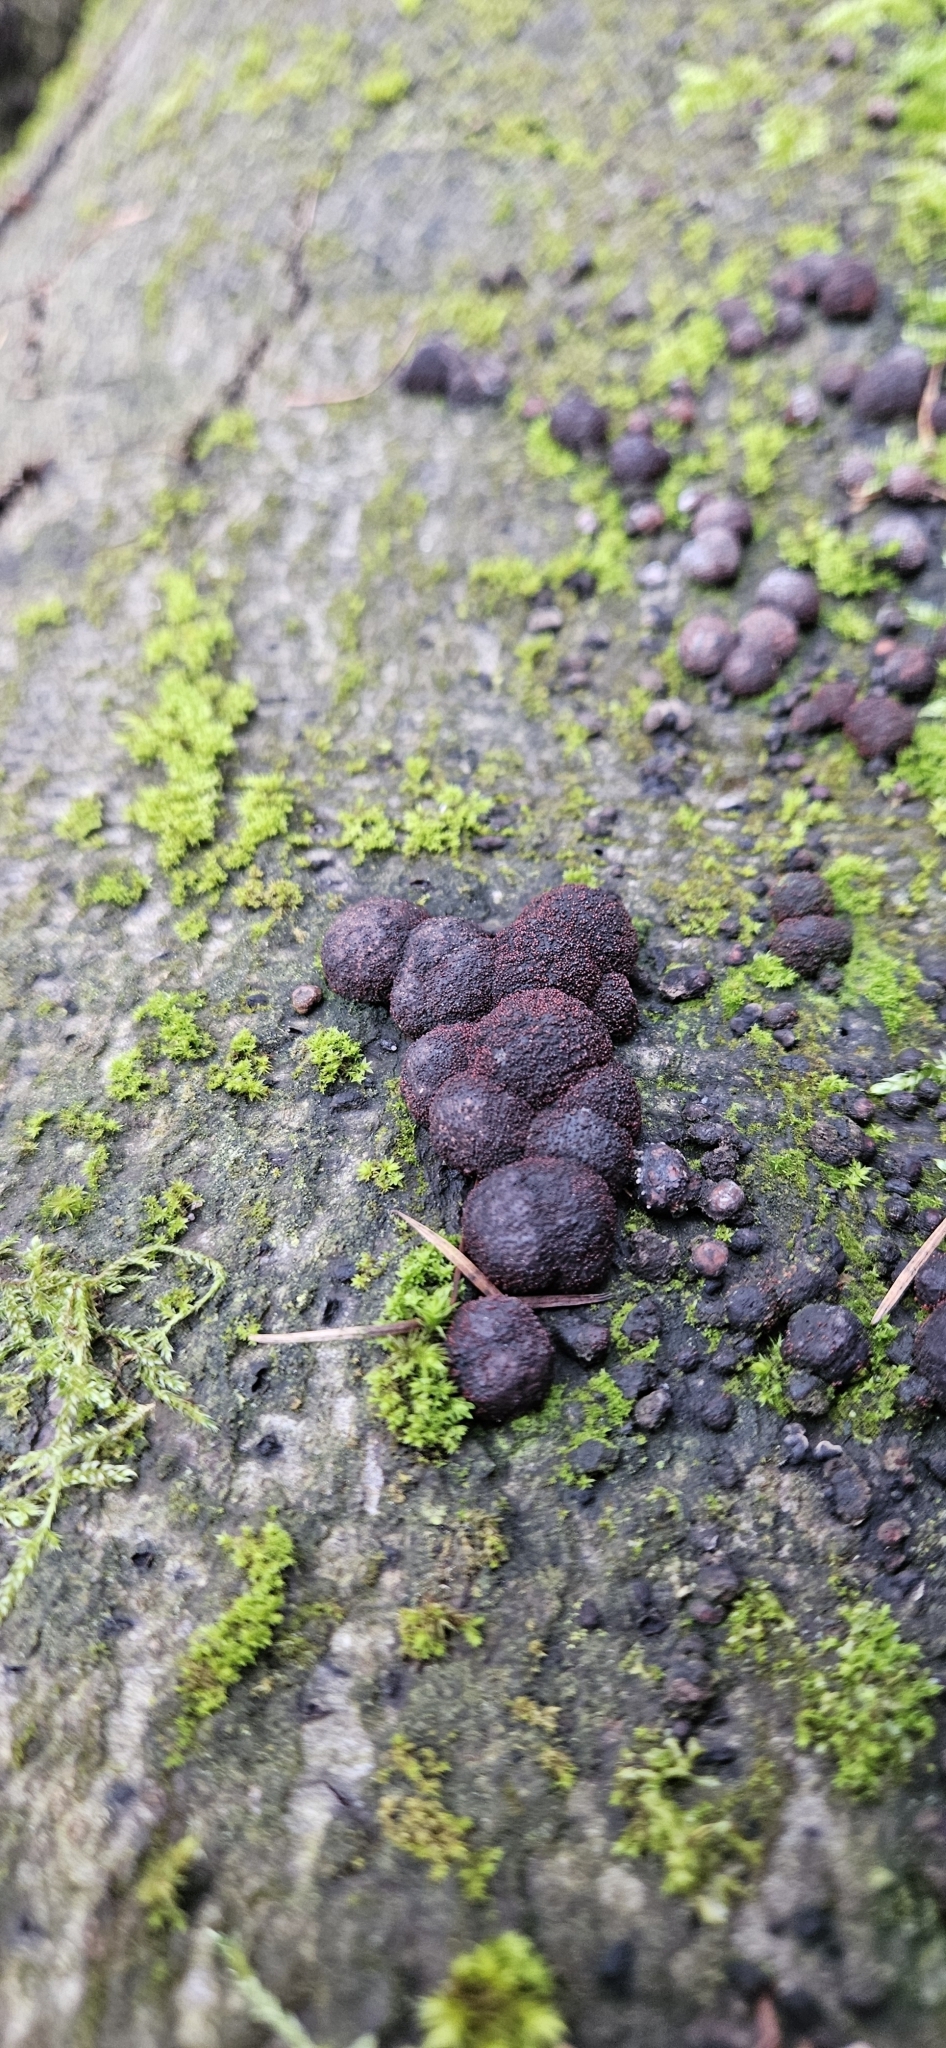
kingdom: Fungi
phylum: Ascomycota
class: Sordariomycetes
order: Xylariales
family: Hypoxylaceae
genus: Hypoxylon
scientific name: Hypoxylon fragiforme
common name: Beech woodwart
